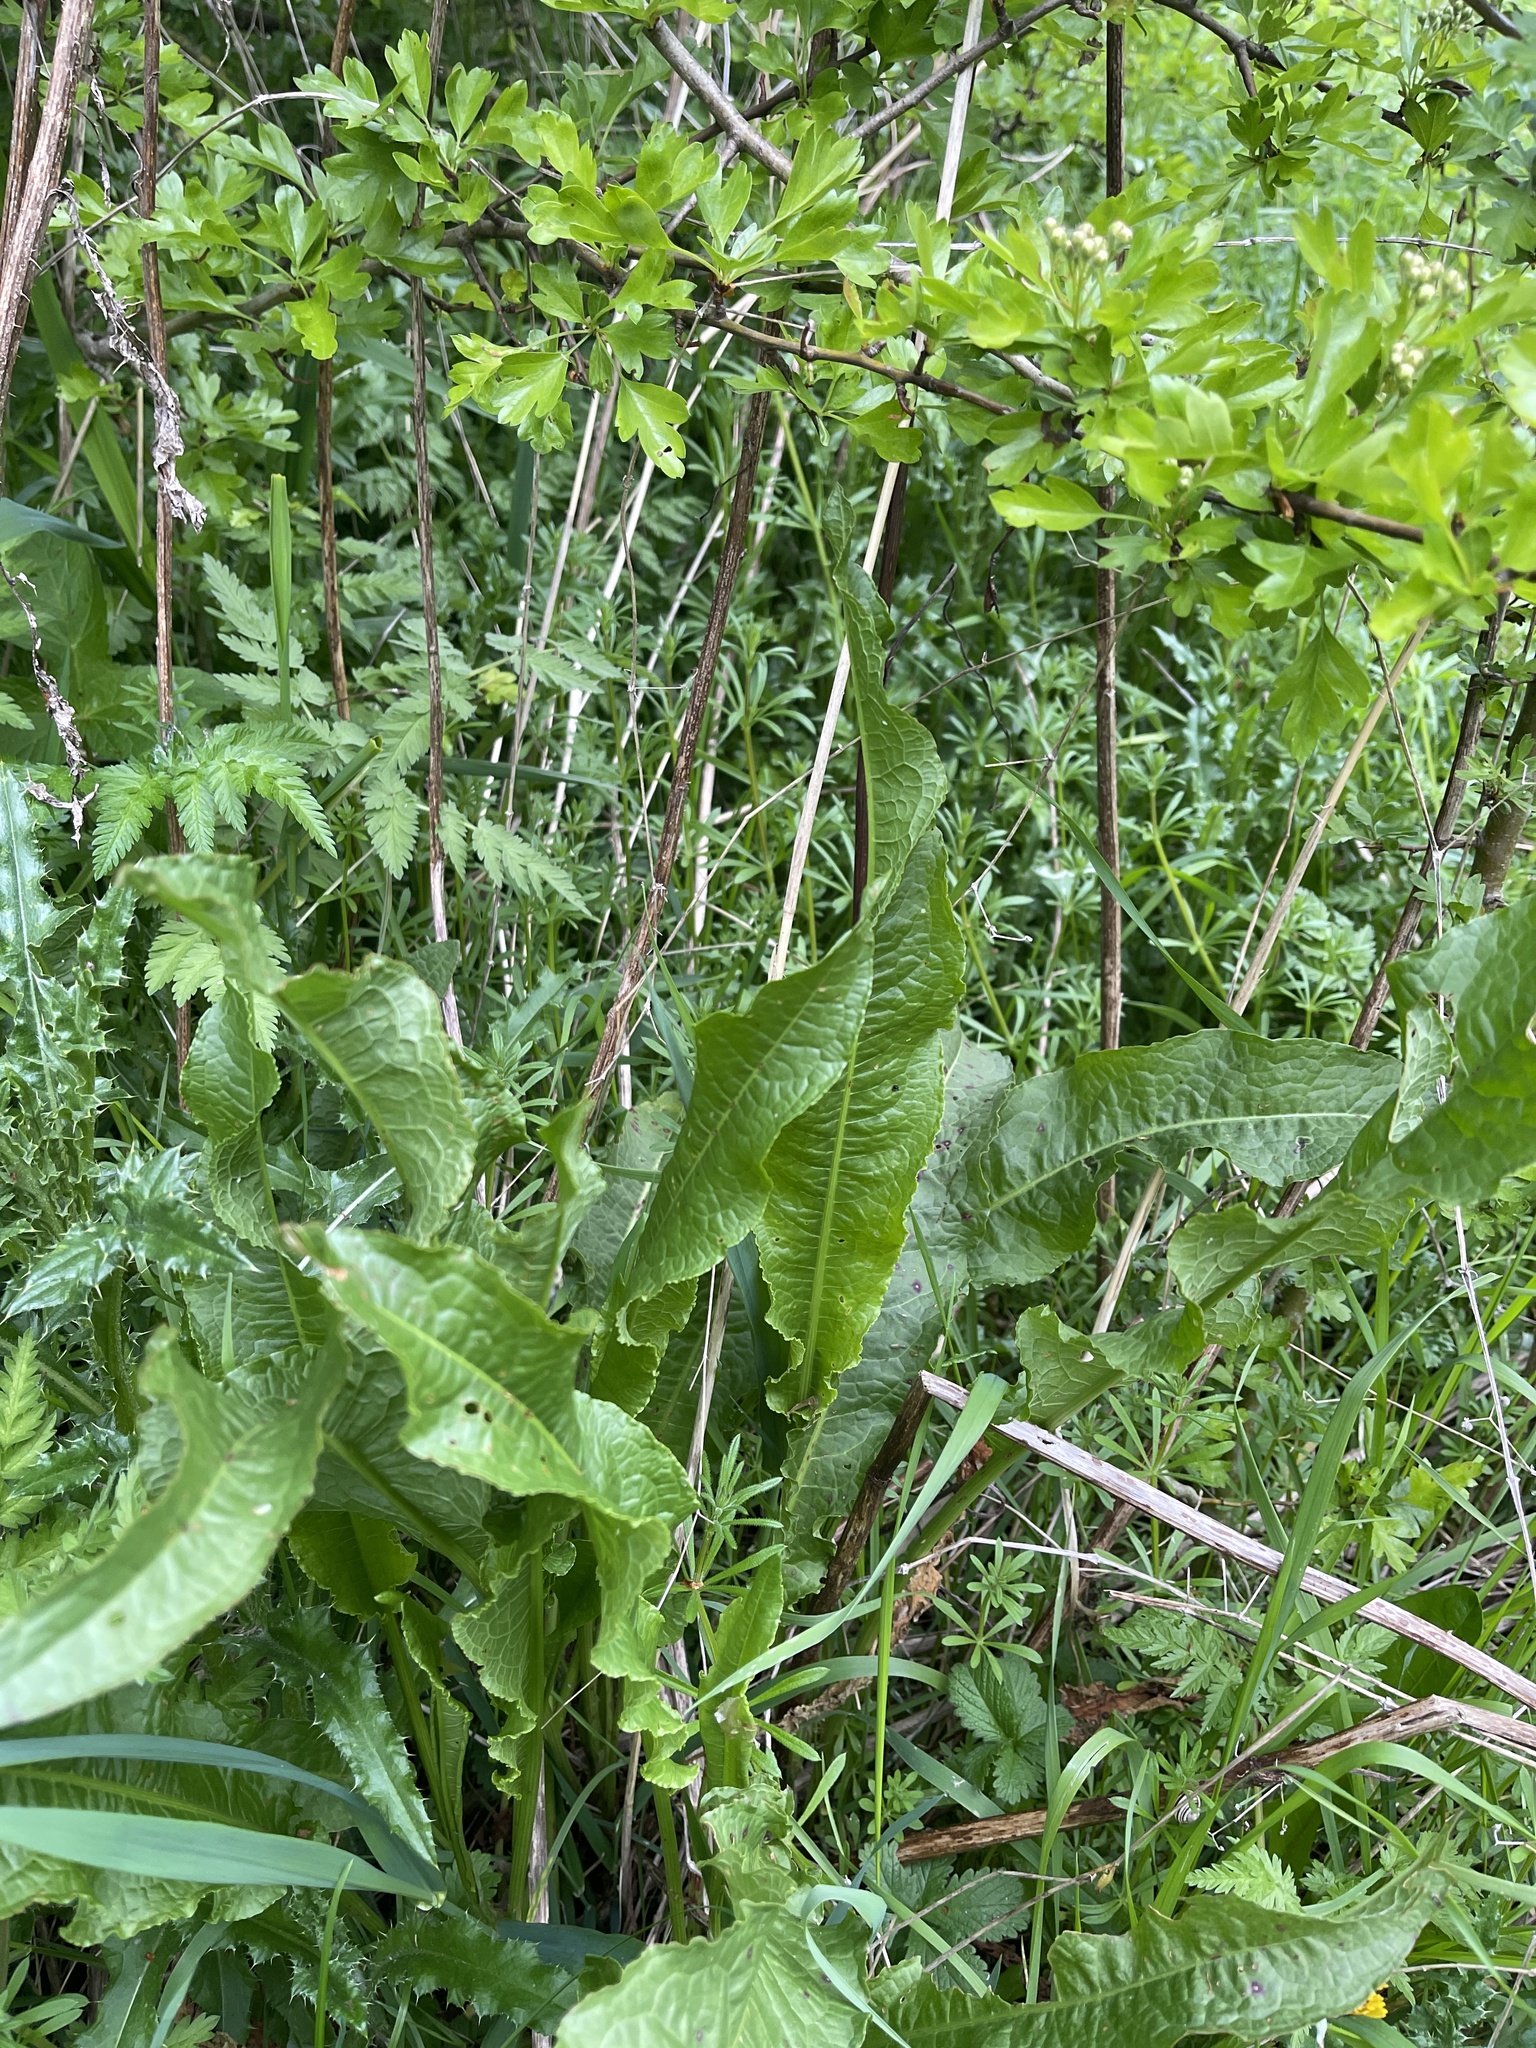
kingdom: Plantae
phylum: Tracheophyta
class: Magnoliopsida
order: Caryophyllales
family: Polygonaceae
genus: Rumex
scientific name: Rumex crispus
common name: Curled dock
